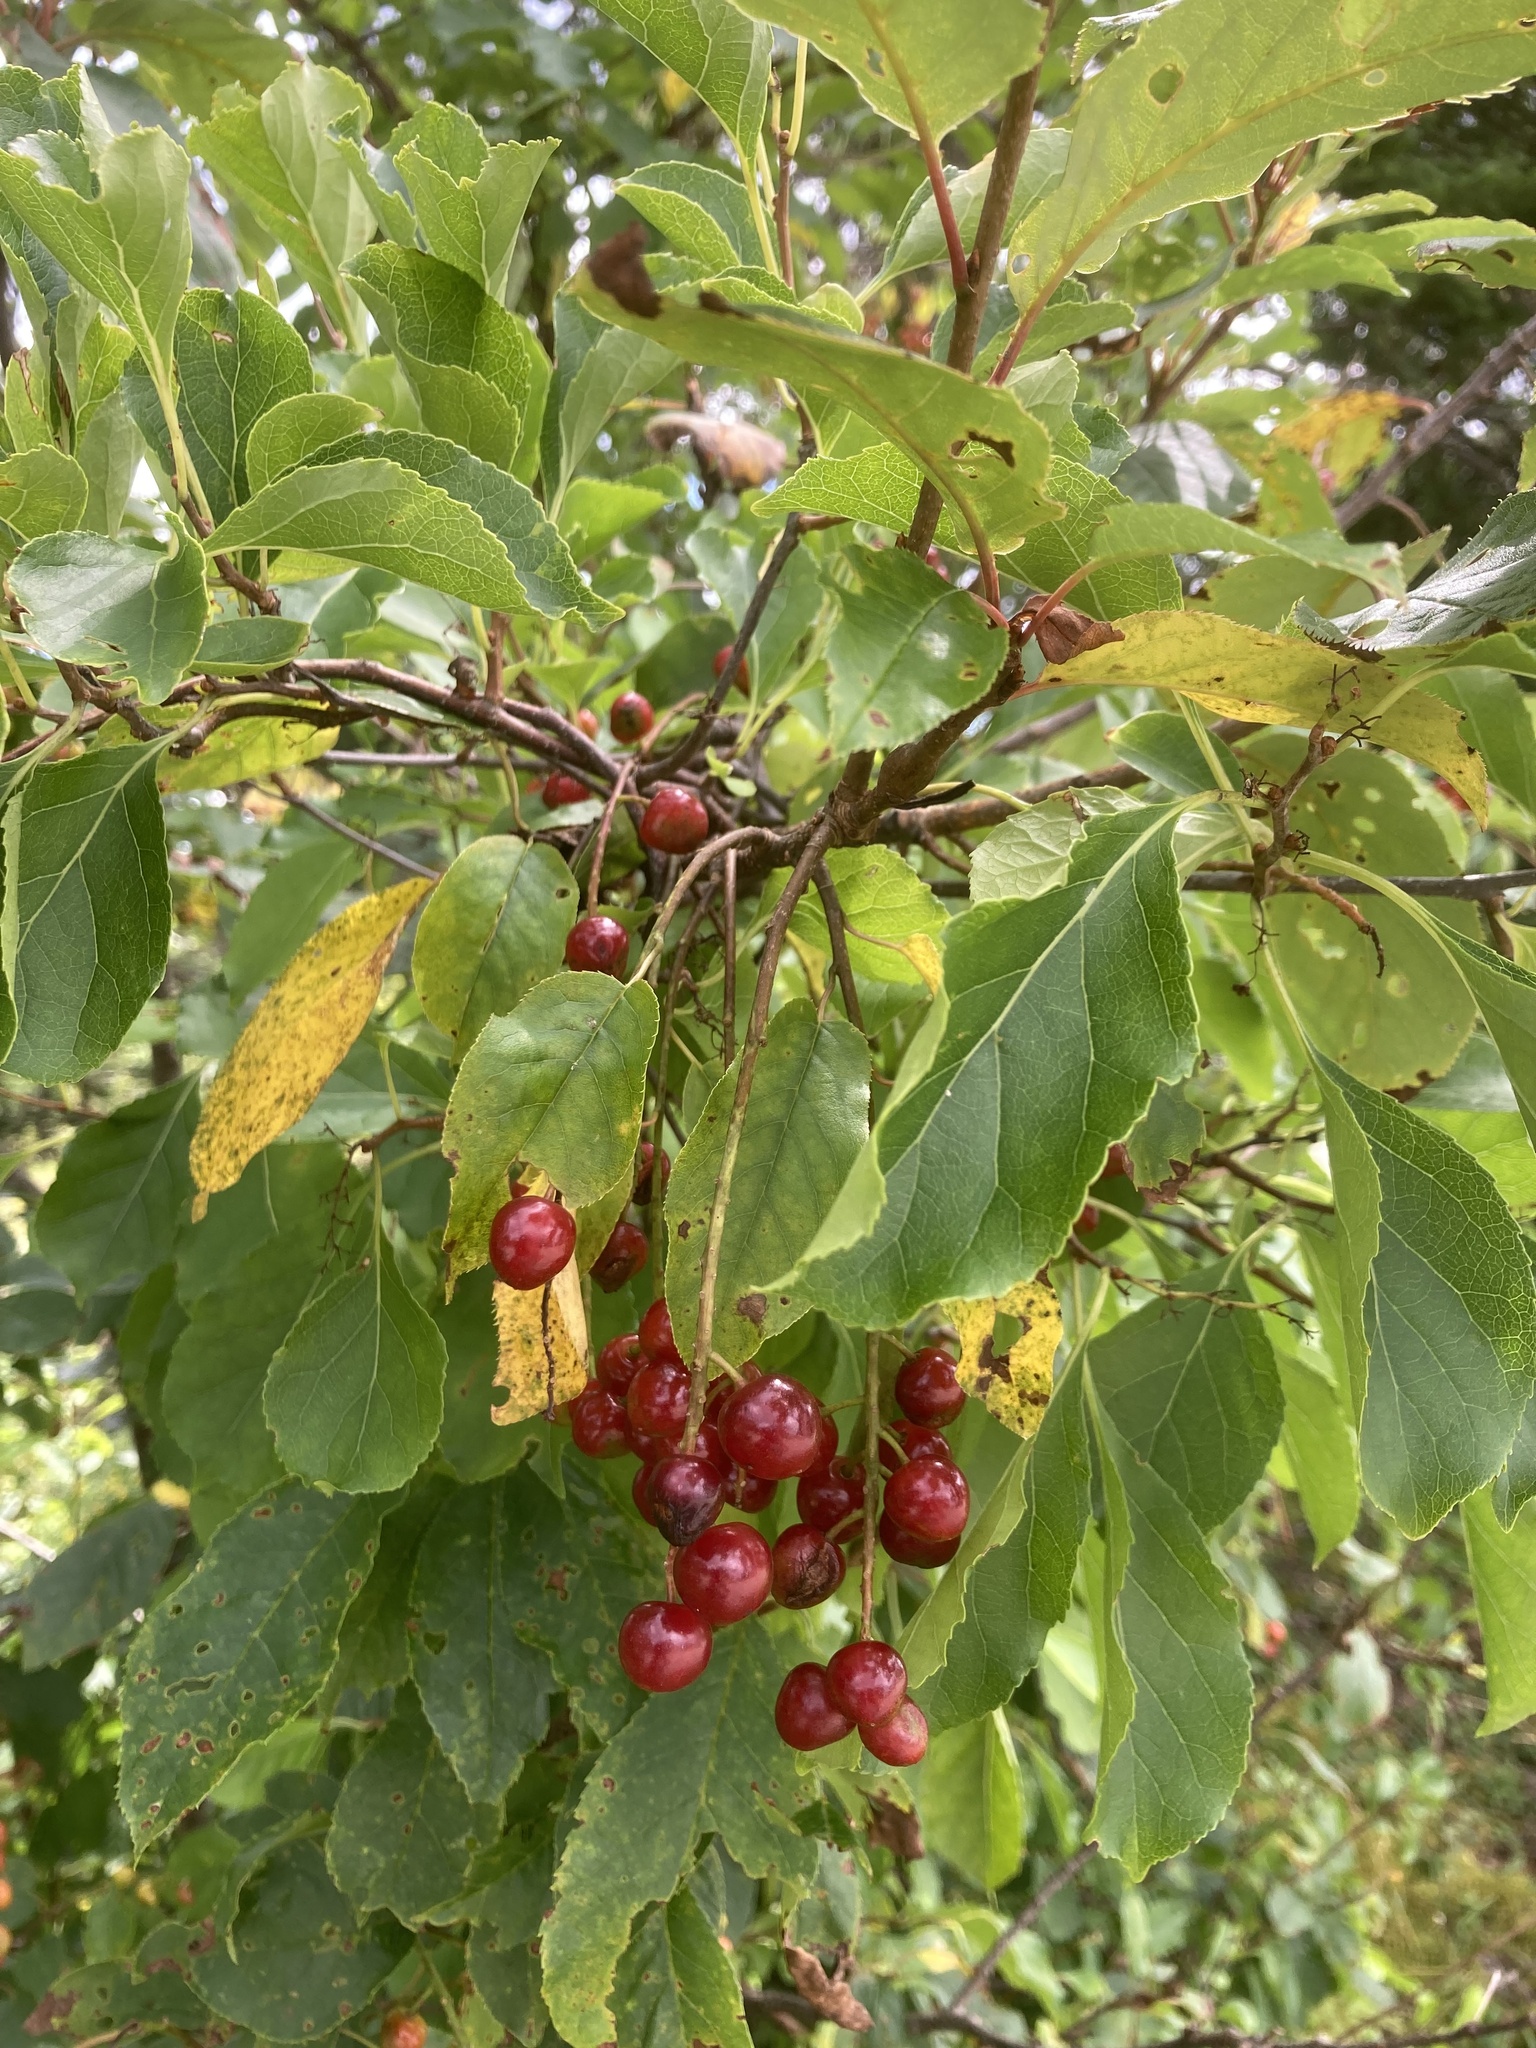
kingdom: Plantae
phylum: Tracheophyta
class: Magnoliopsida
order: Rosales
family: Rosaceae
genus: Prunus
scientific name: Prunus virginiana
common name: Chokecherry
